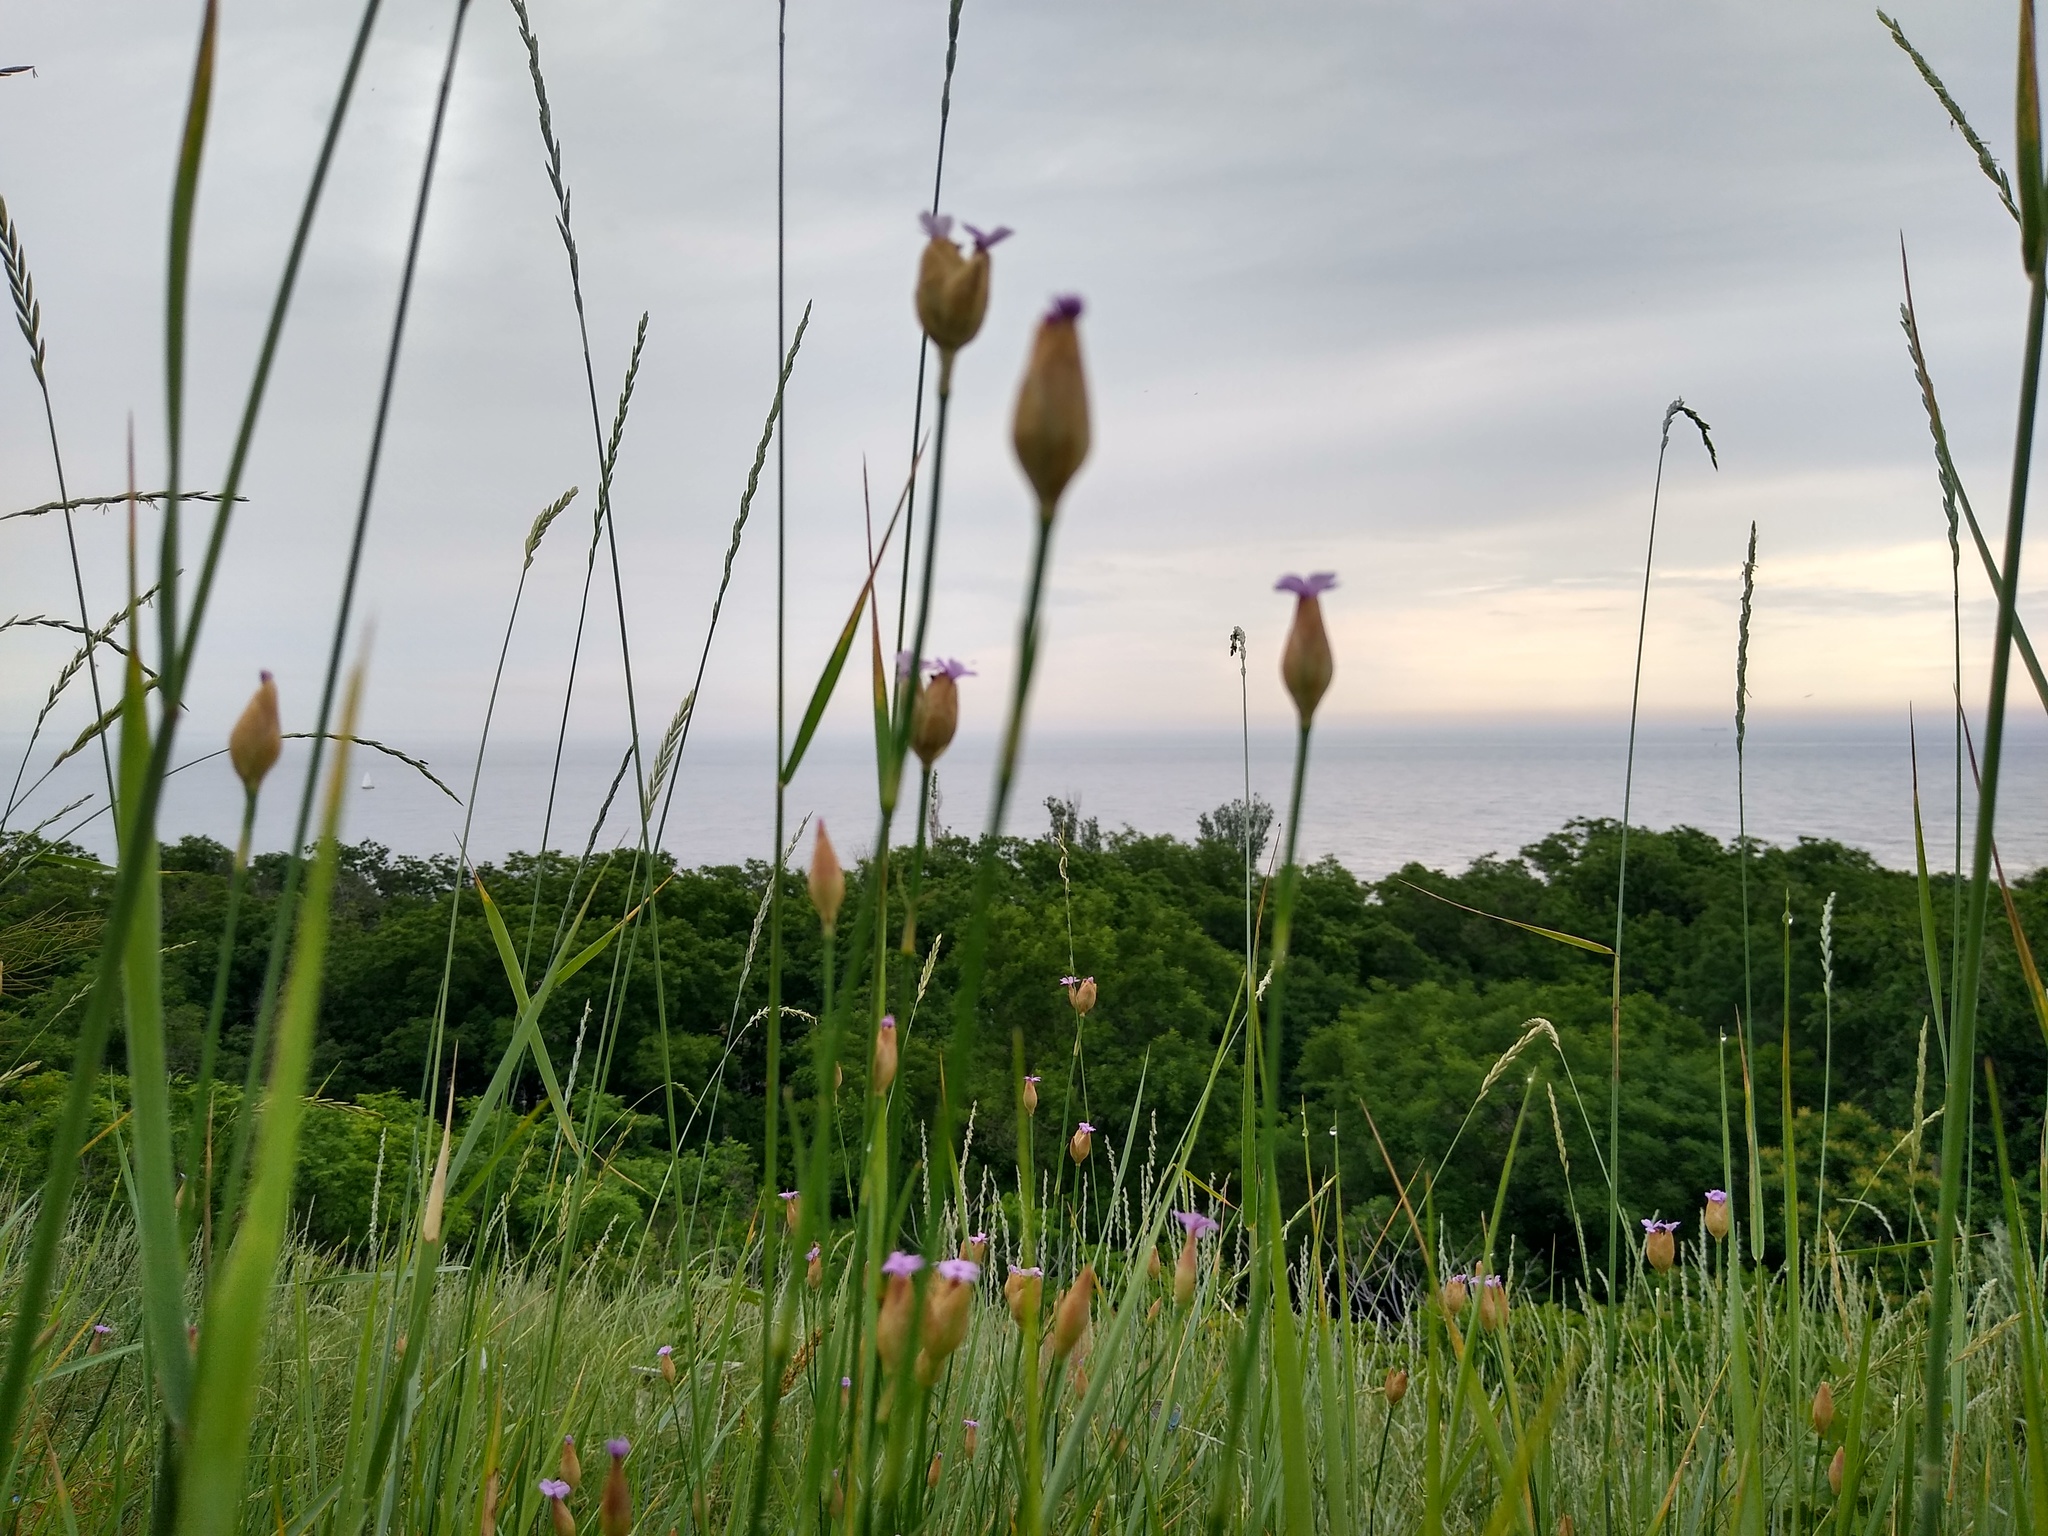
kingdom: Plantae
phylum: Tracheophyta
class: Magnoliopsida
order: Caryophyllales
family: Caryophyllaceae
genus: Petrorhagia
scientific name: Petrorhagia prolifera
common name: Proliferous pink
